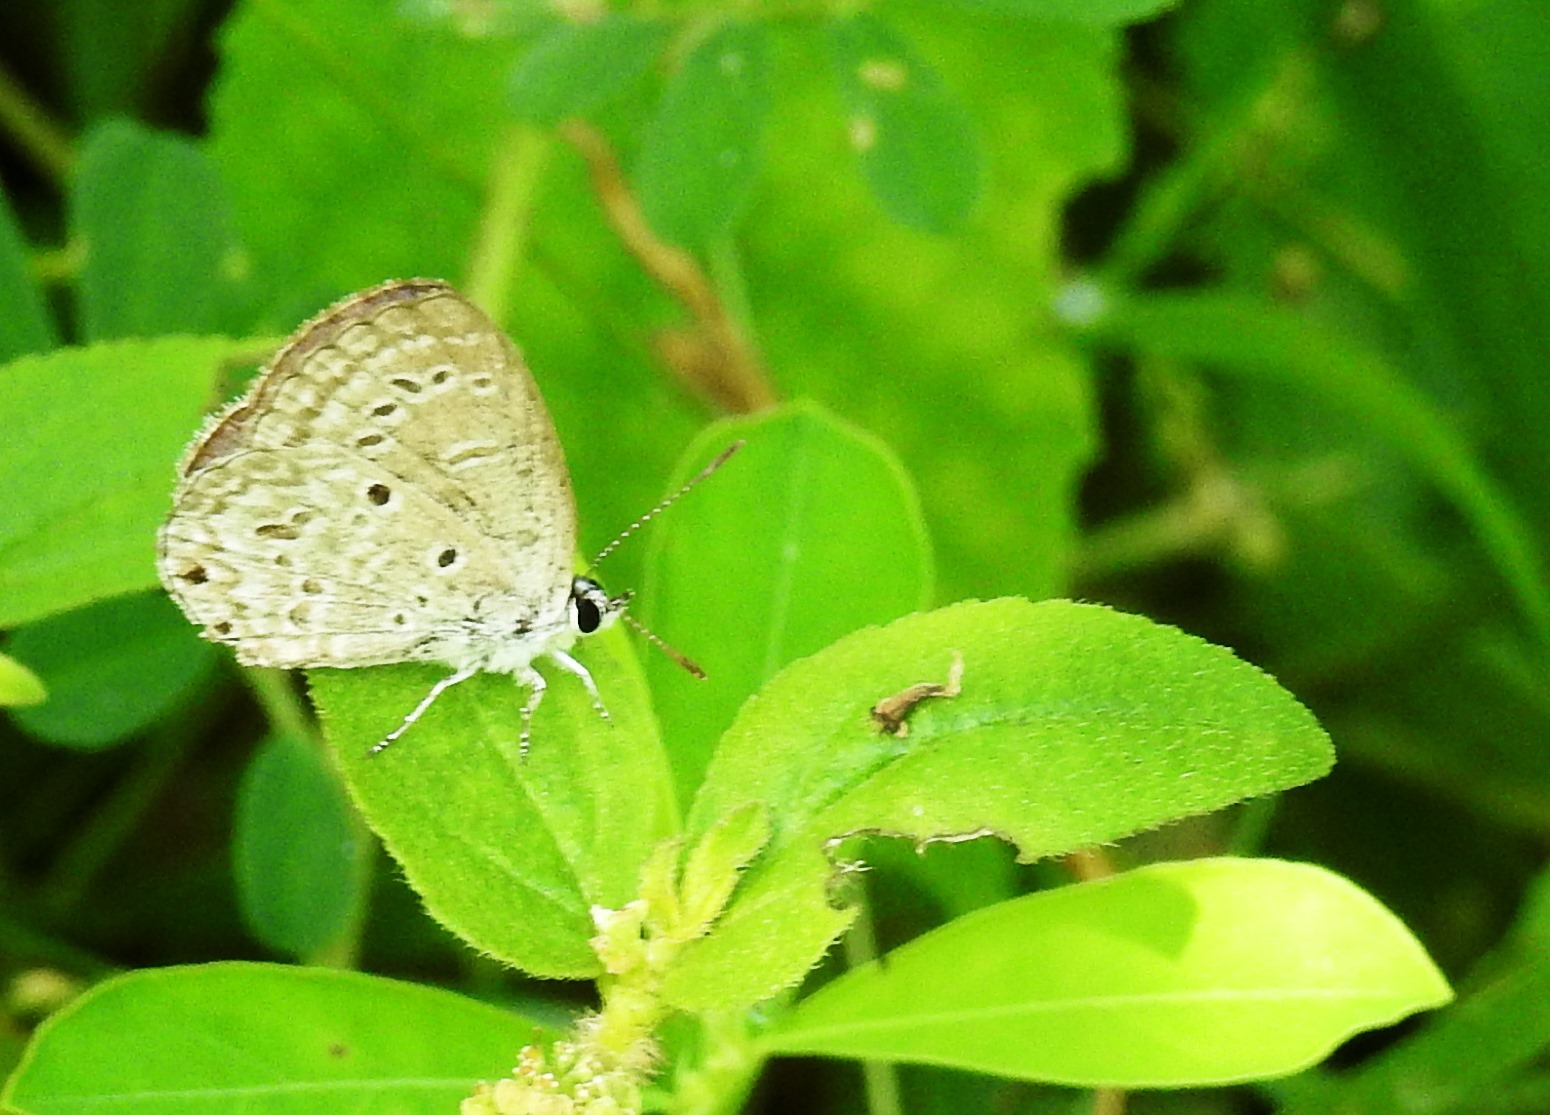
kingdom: Animalia
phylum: Arthropoda
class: Insecta
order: Lepidoptera
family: Lycaenidae
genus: Chilades
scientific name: Chilades laius
